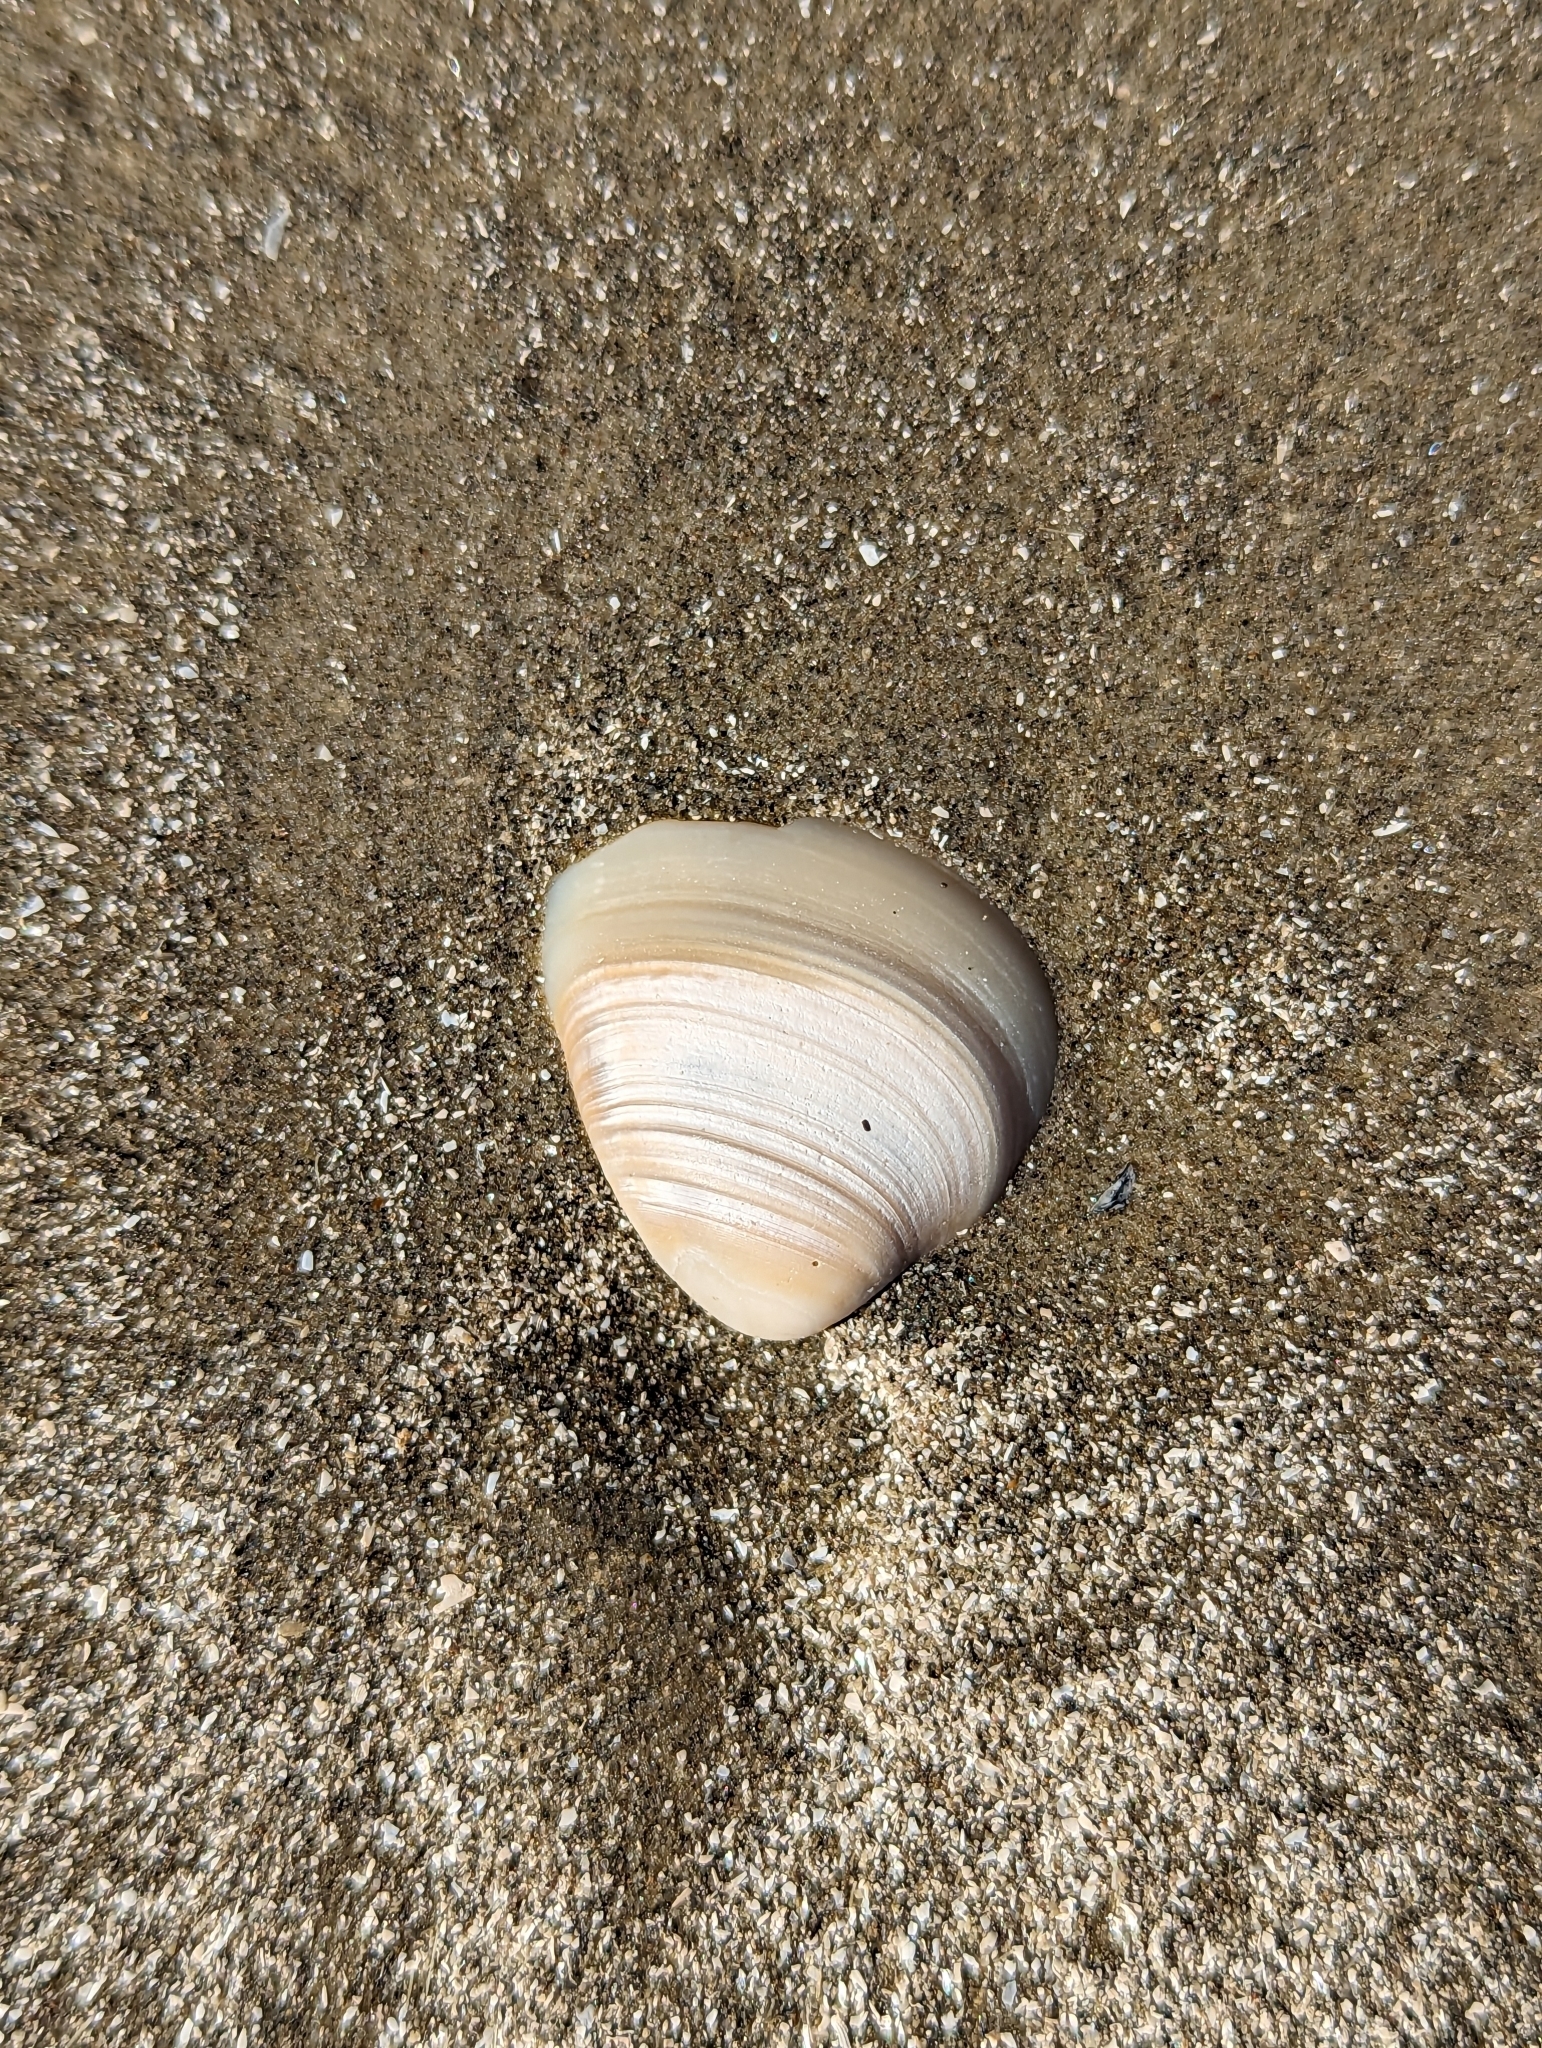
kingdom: Animalia
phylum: Mollusca
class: Bivalvia
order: Venerida
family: Mactridae
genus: Rangia
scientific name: Rangia cuneata
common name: Atlantic rangia
